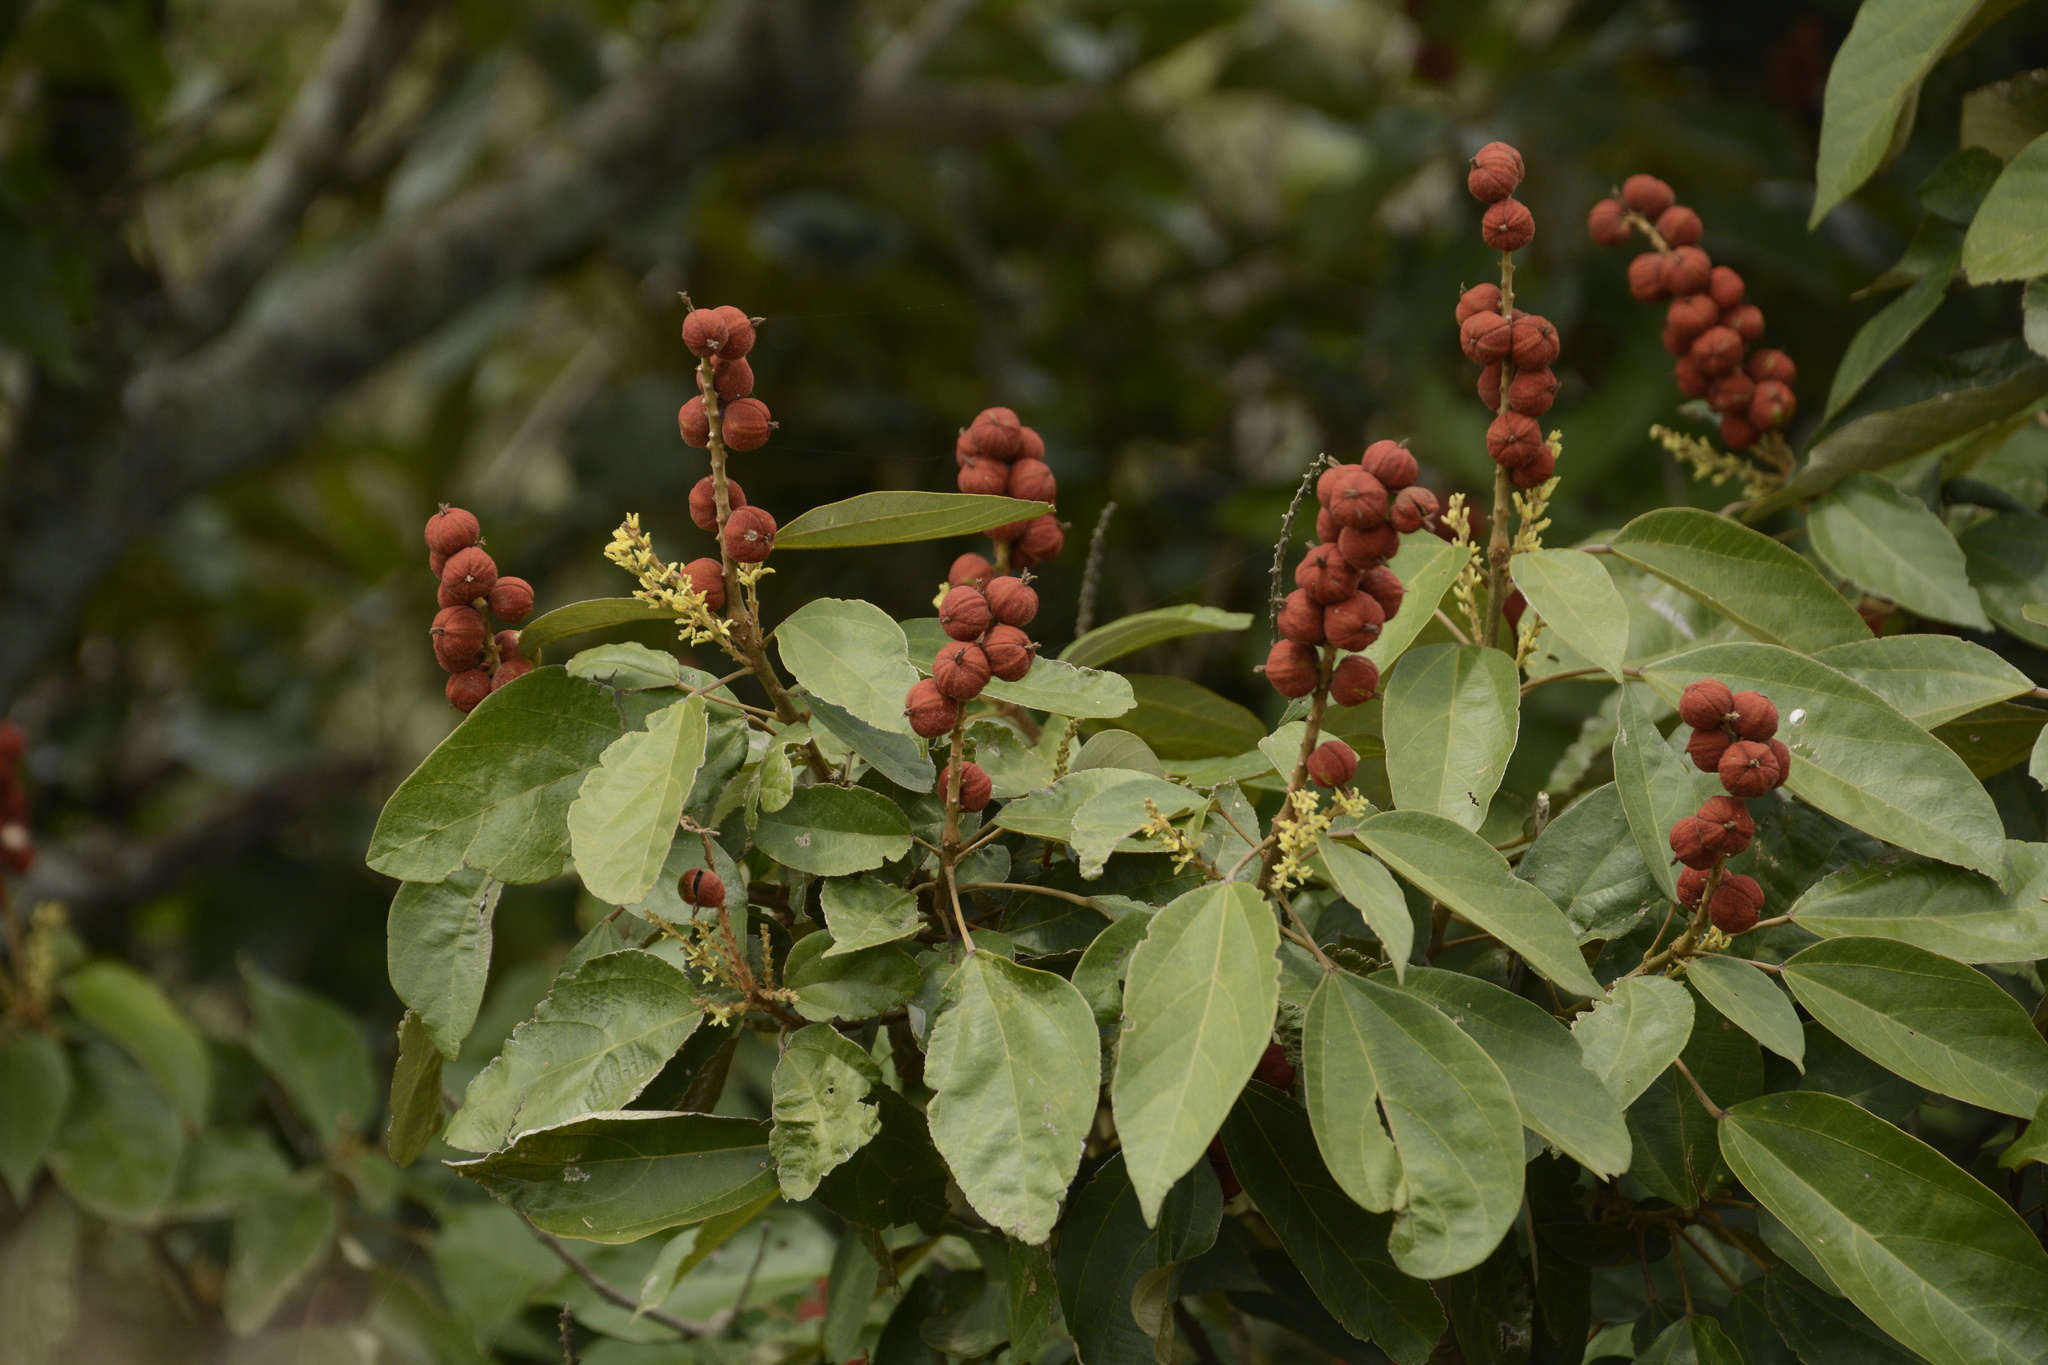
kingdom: Plantae
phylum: Tracheophyta
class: Magnoliopsida
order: Malpighiales
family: Euphorbiaceae
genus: Mallotus
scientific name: Mallotus philippensis
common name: Kamala tree
